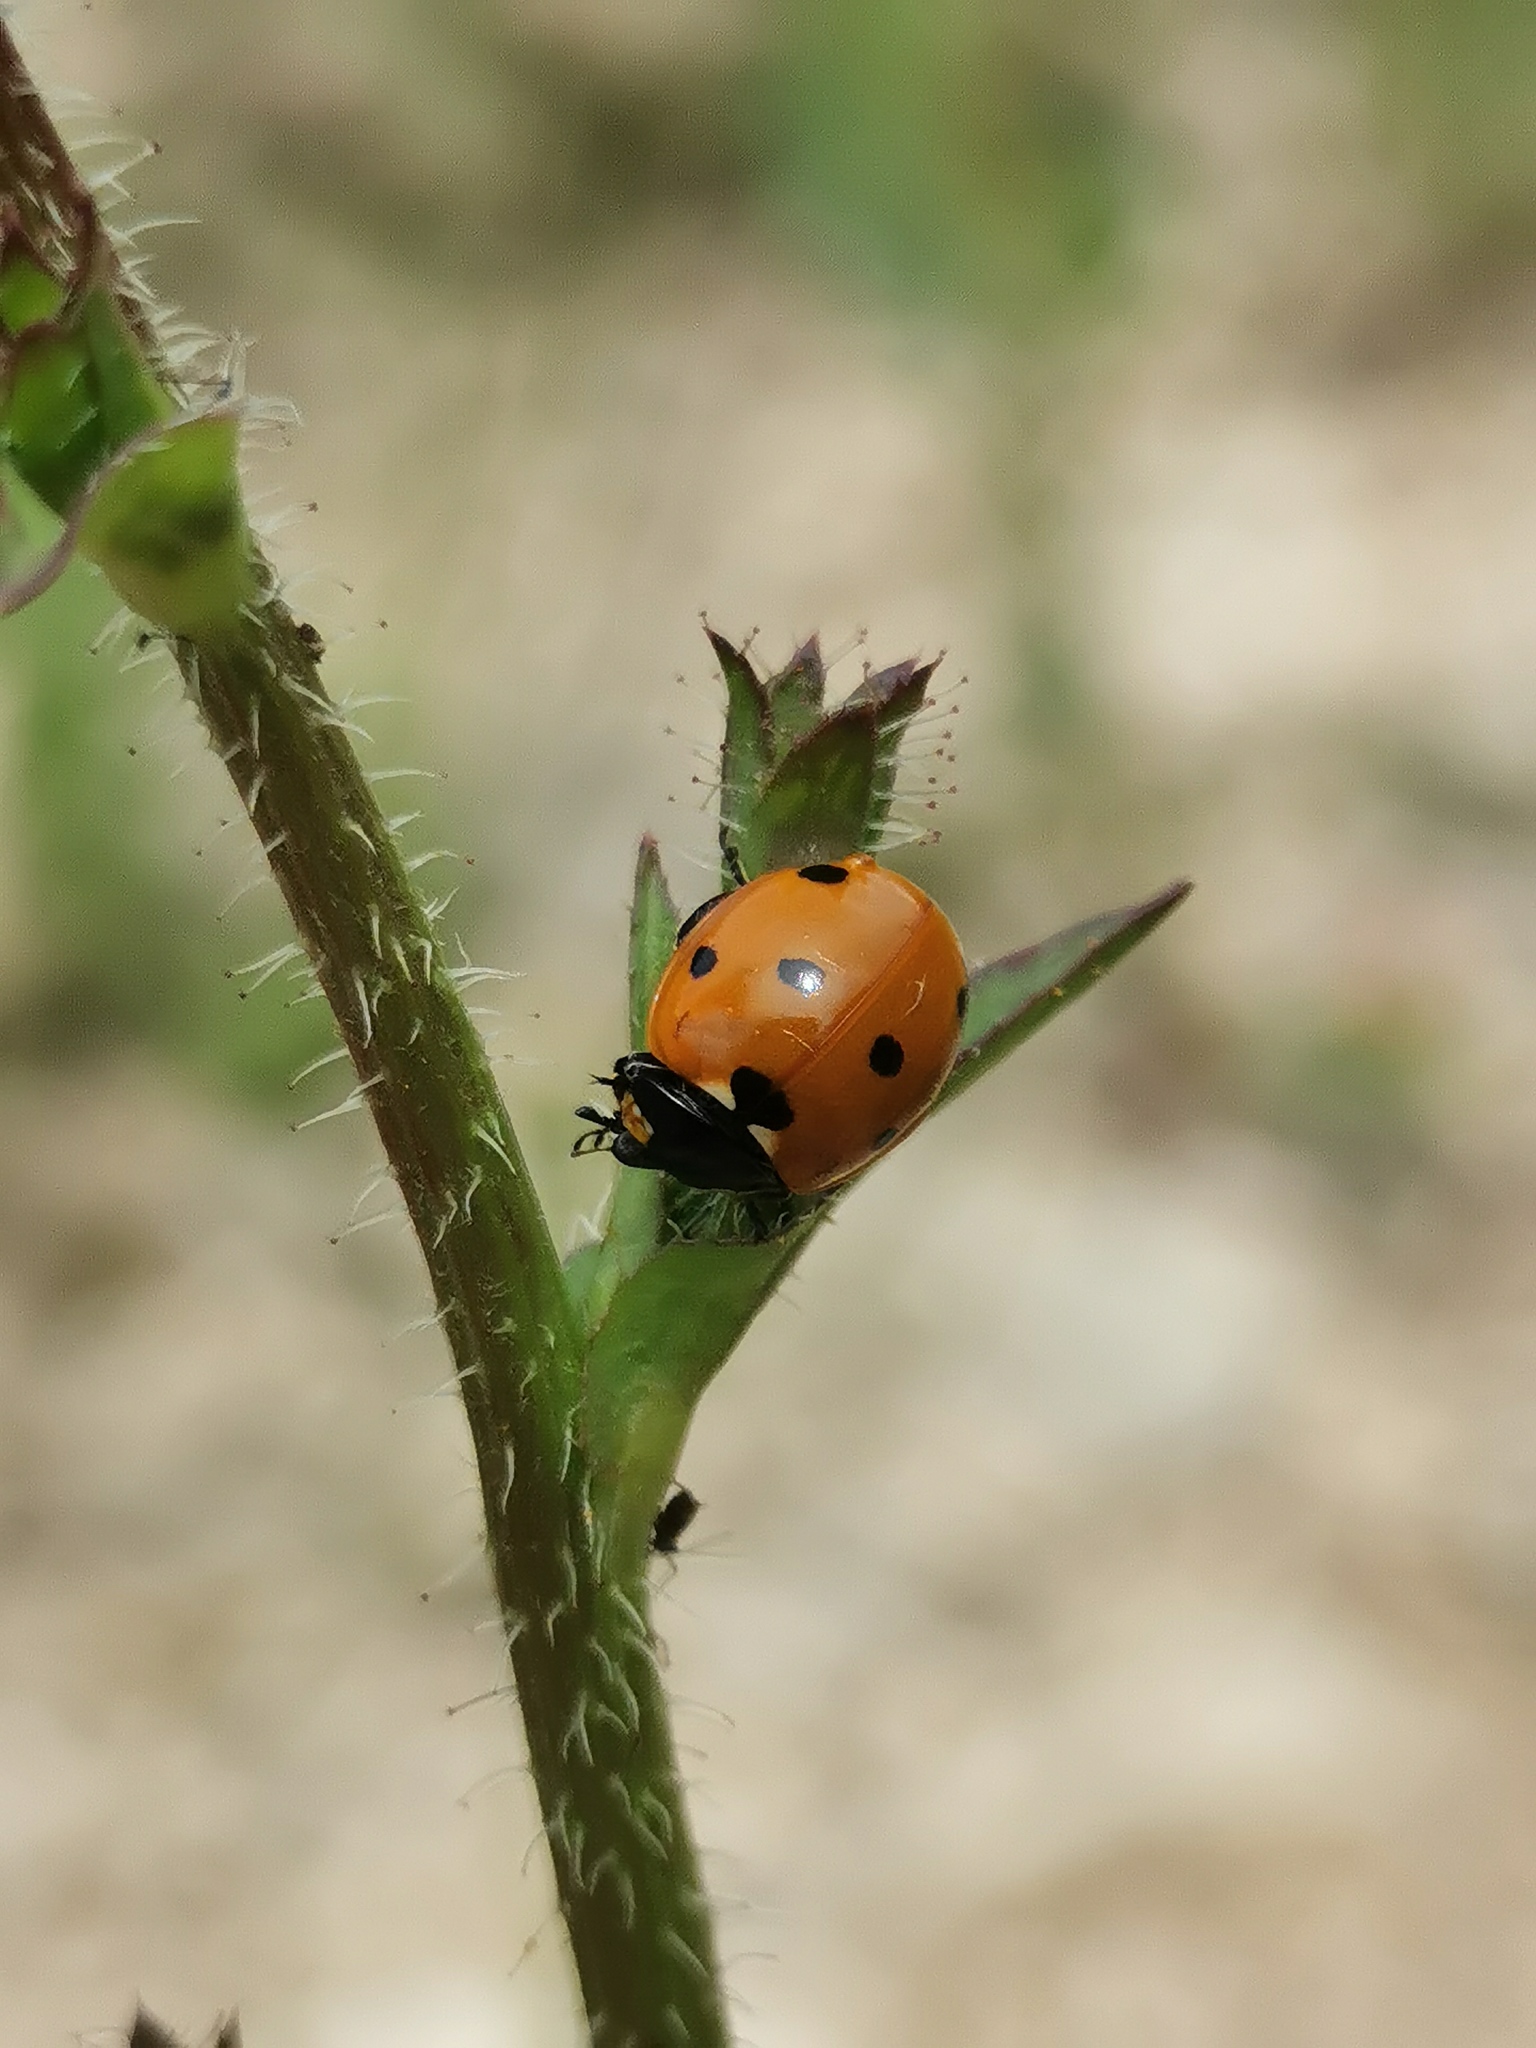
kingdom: Animalia
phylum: Arthropoda
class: Insecta
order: Coleoptera
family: Coccinellidae
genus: Coccinella
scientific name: Coccinella septempunctata
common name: Sevenspotted lady beetle
